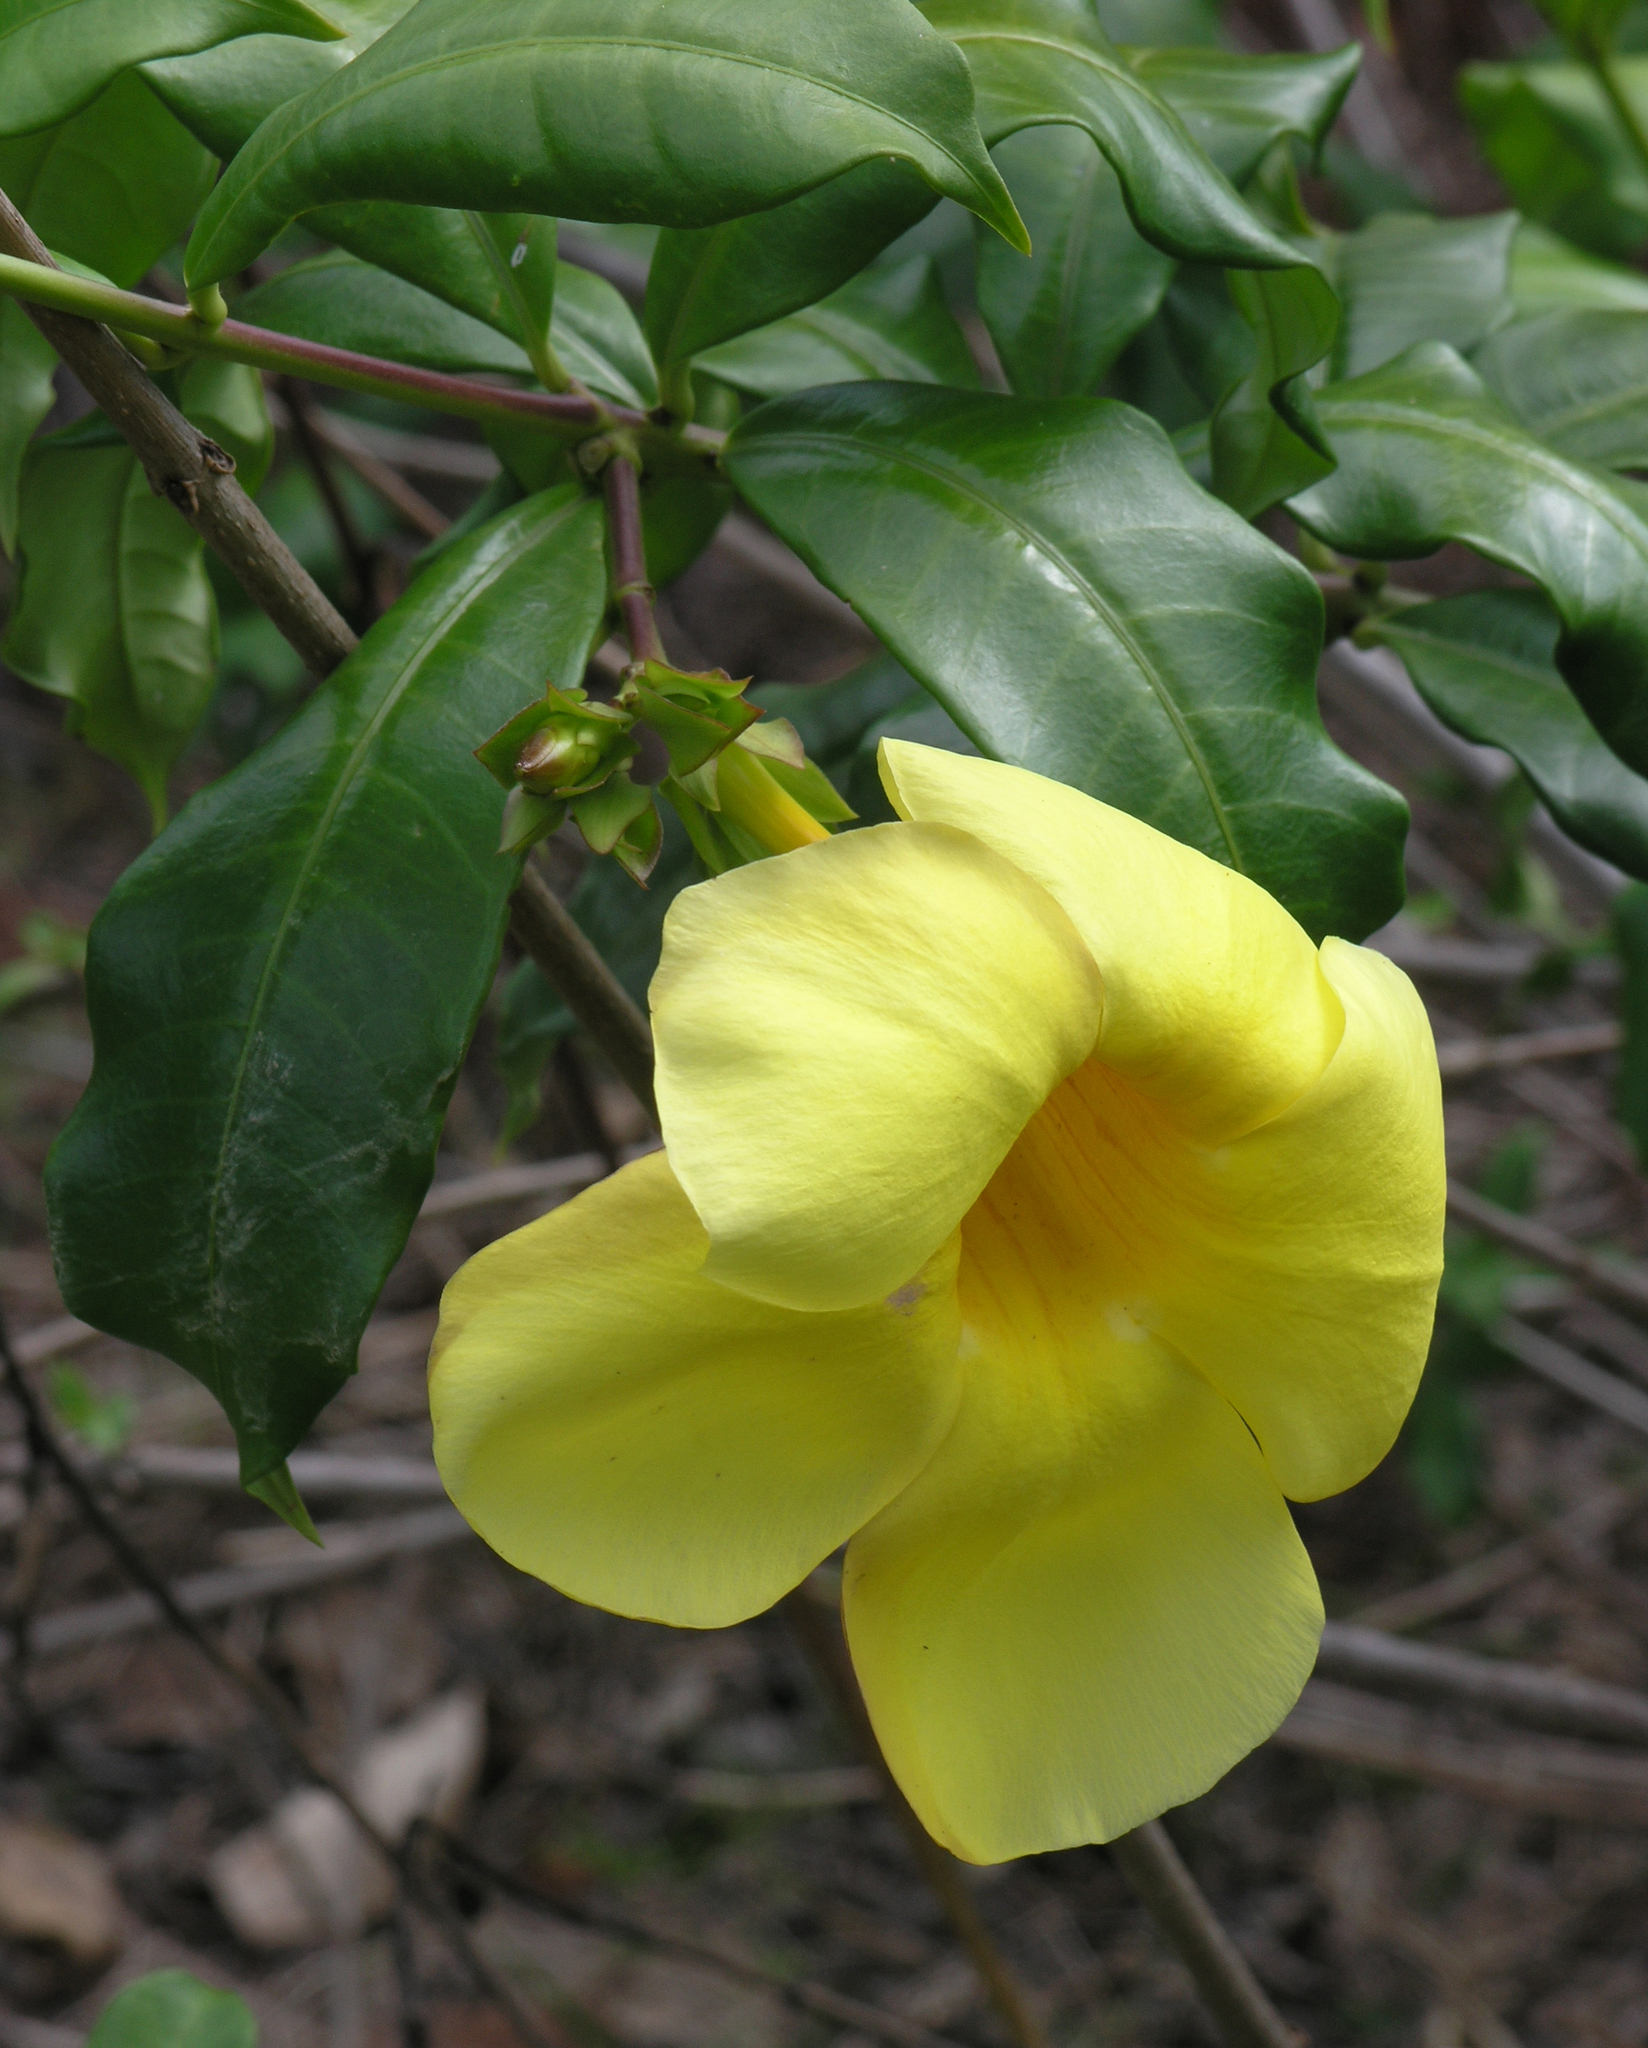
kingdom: Plantae
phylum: Tracheophyta
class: Magnoliopsida
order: Gentianales
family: Apocynaceae
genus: Allamanda
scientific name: Allamanda cathartica
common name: Golden trumpet
